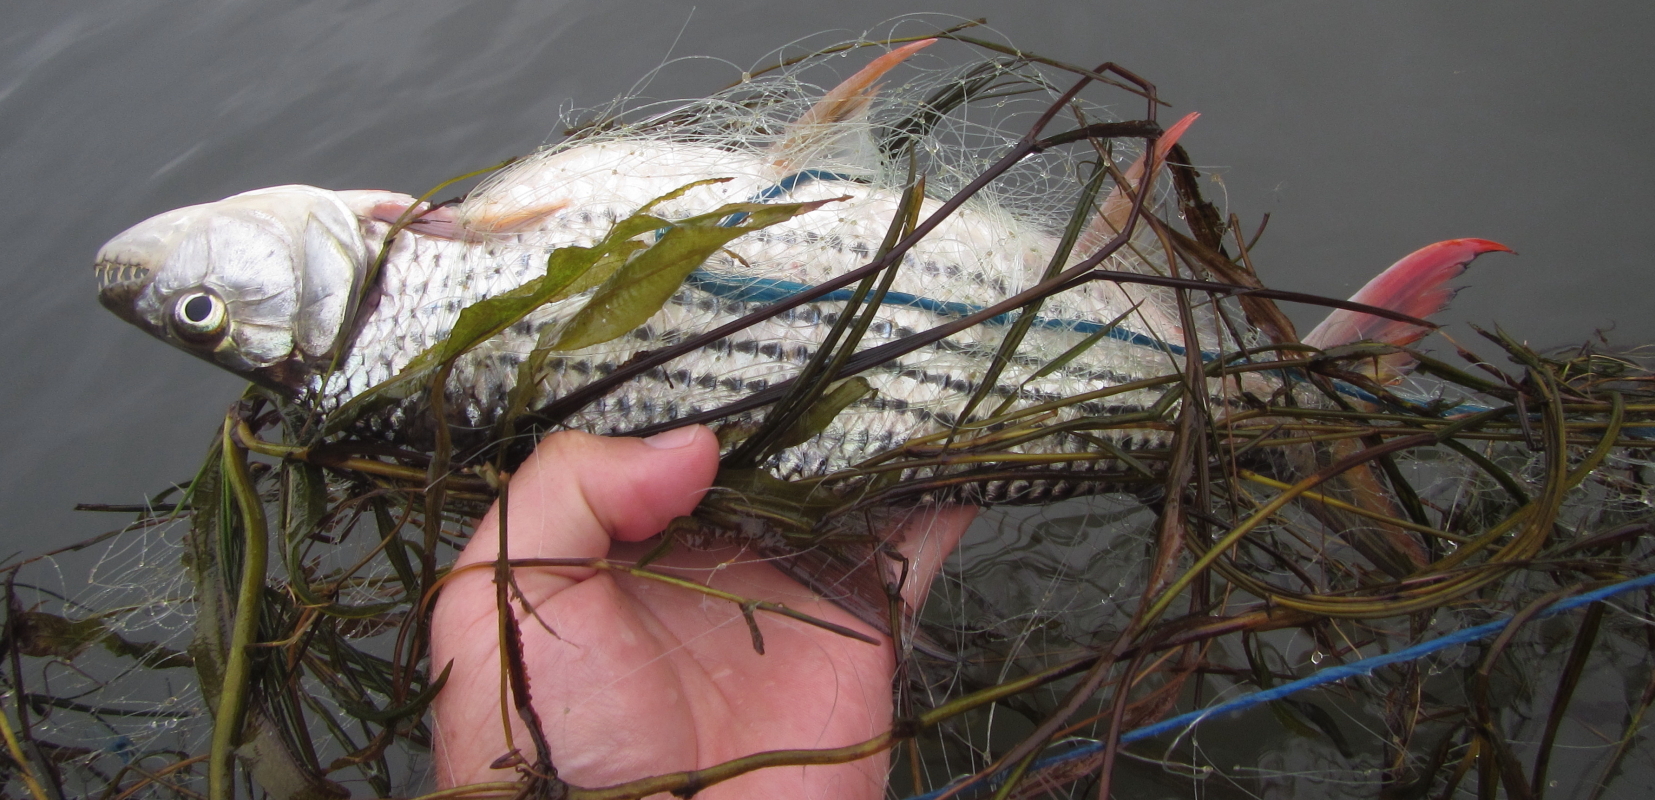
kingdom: Animalia
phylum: Chordata
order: Characiformes
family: Alestidae
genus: Hydrocynus
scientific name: Hydrocynus vittatus
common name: Tigerfish
